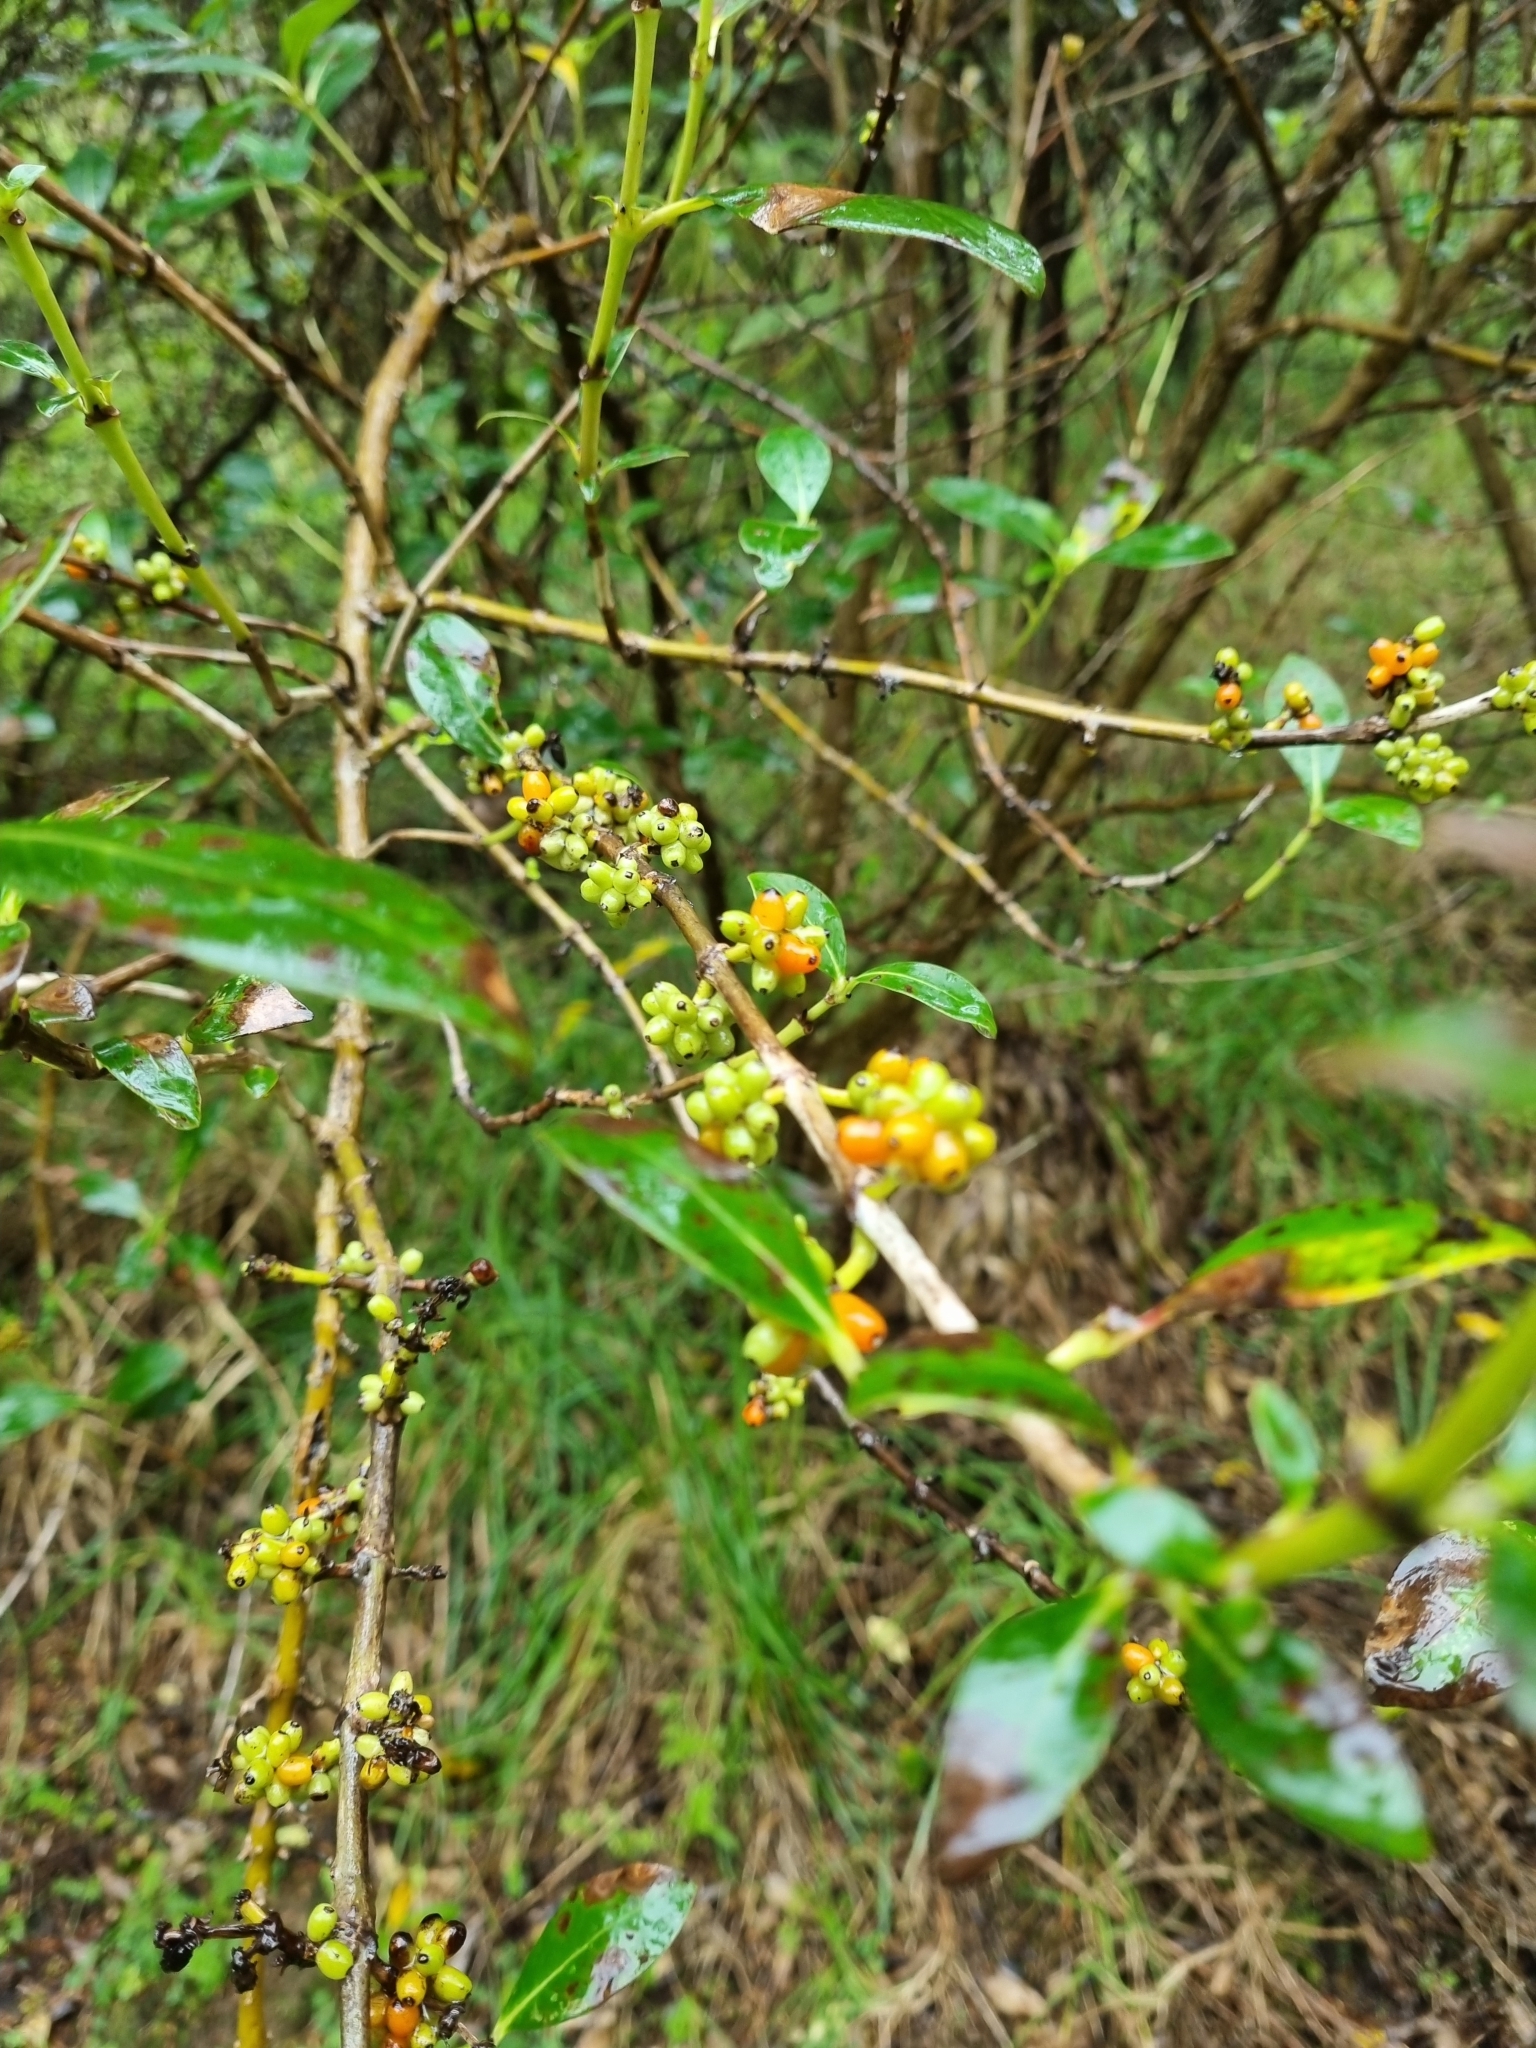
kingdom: Plantae
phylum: Tracheophyta
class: Magnoliopsida
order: Gentianales
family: Rubiaceae
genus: Coprosma
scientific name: Coprosma robusta
